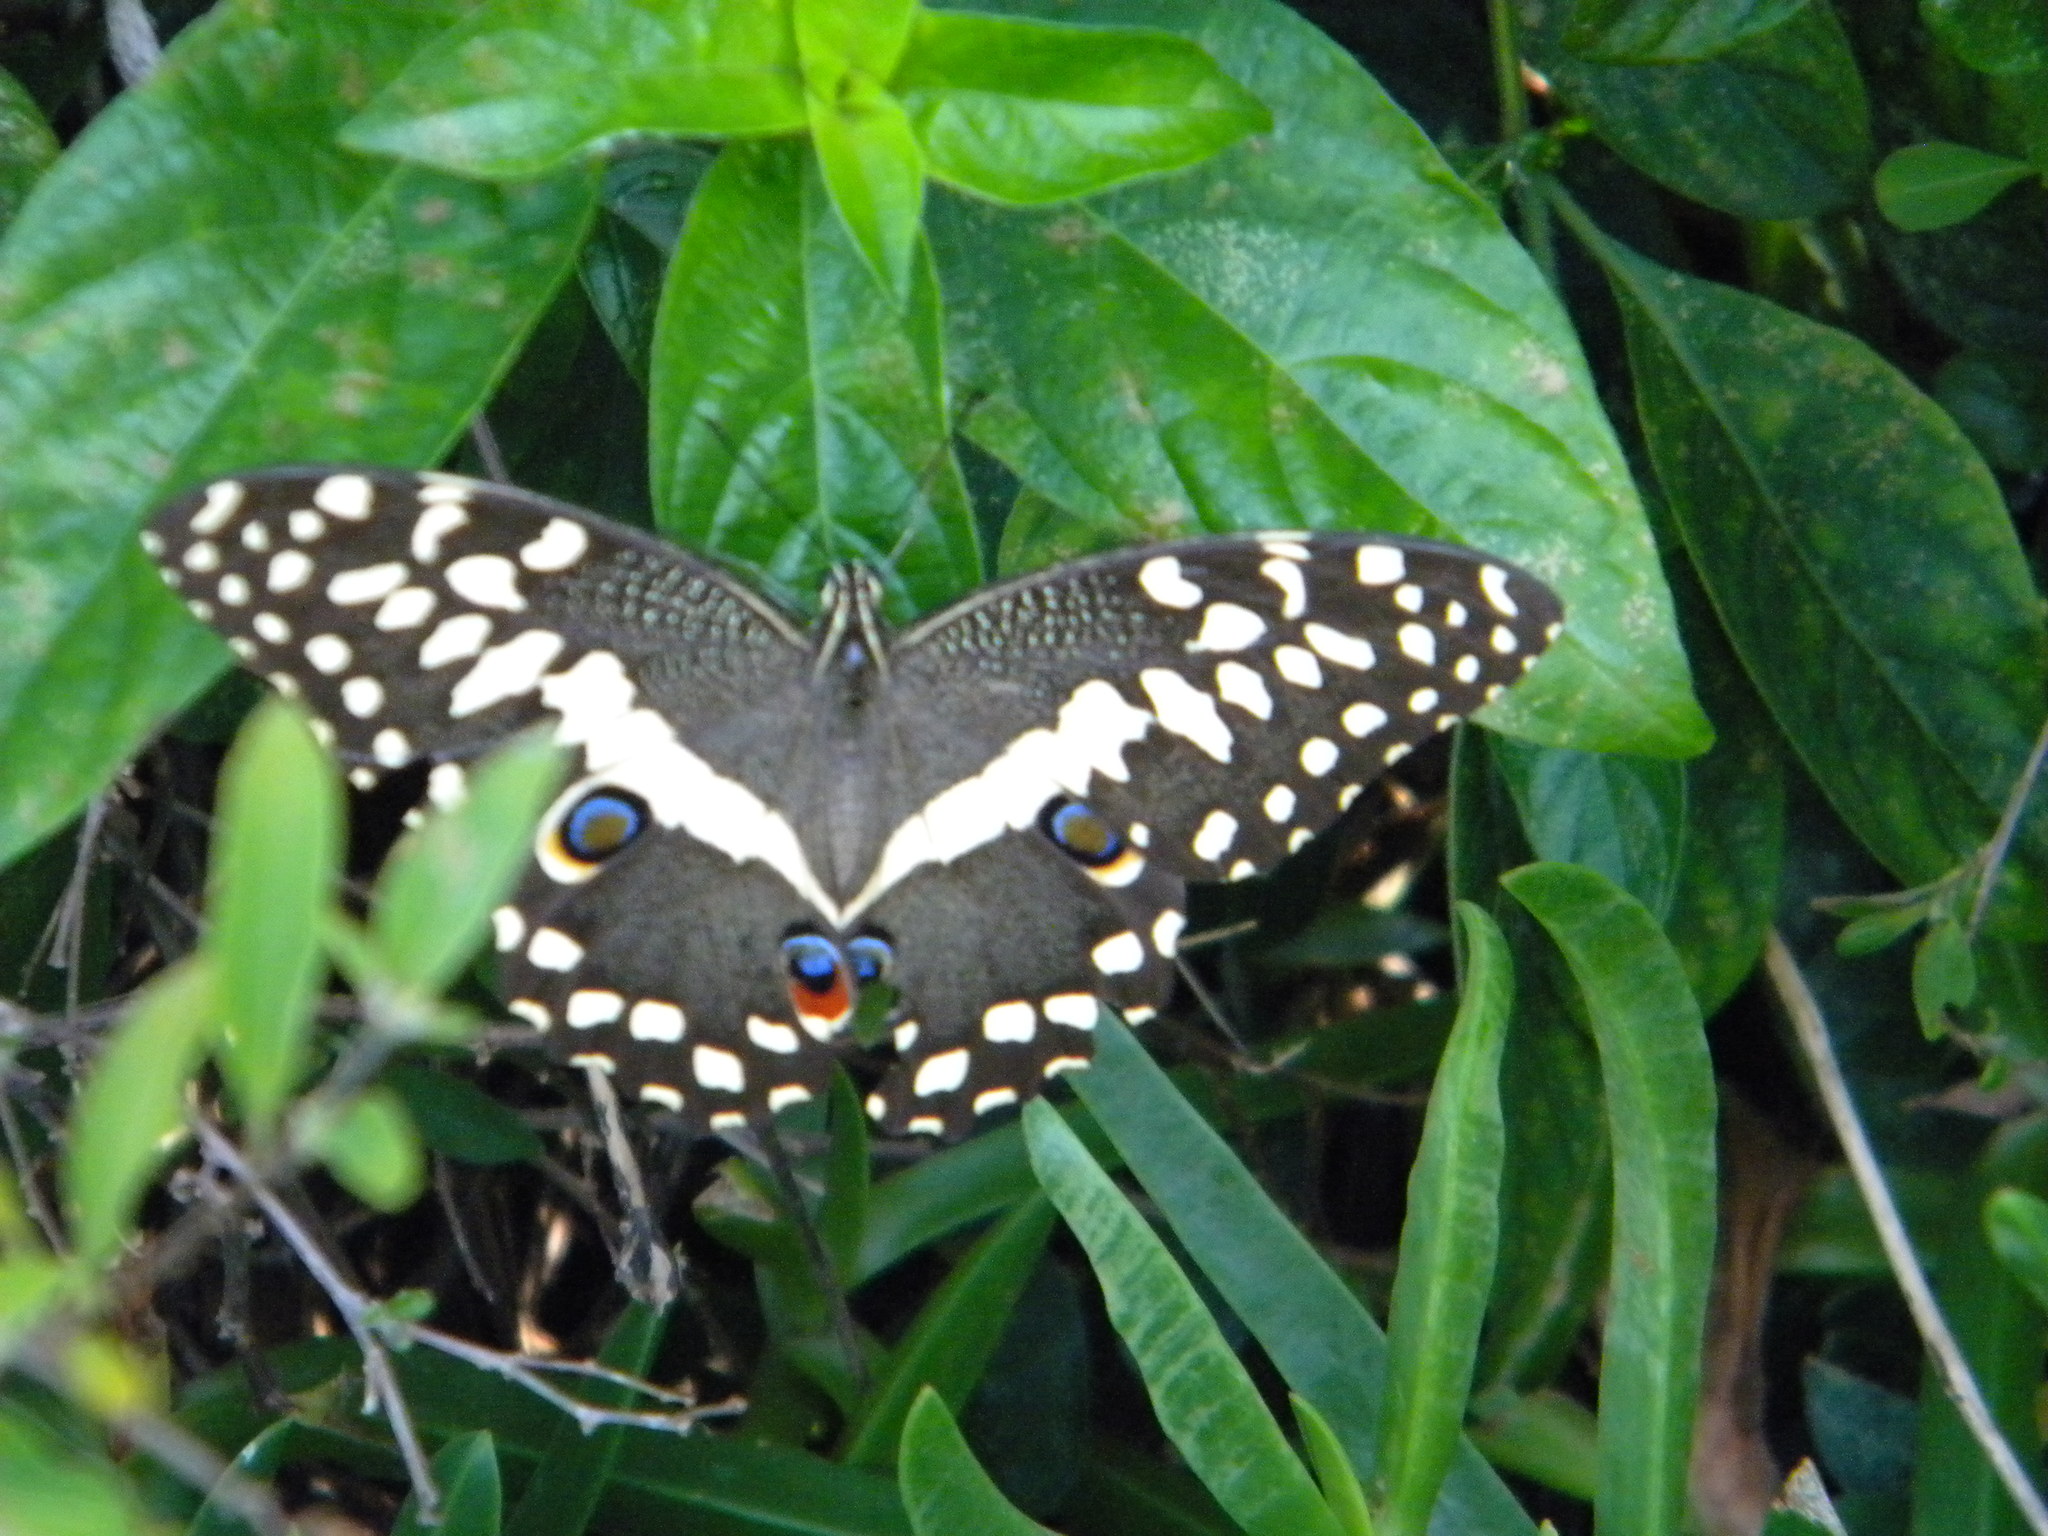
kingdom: Animalia
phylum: Arthropoda
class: Insecta
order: Lepidoptera
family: Papilionidae
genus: Papilio
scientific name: Papilio demodocus
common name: Christmas butterfly
